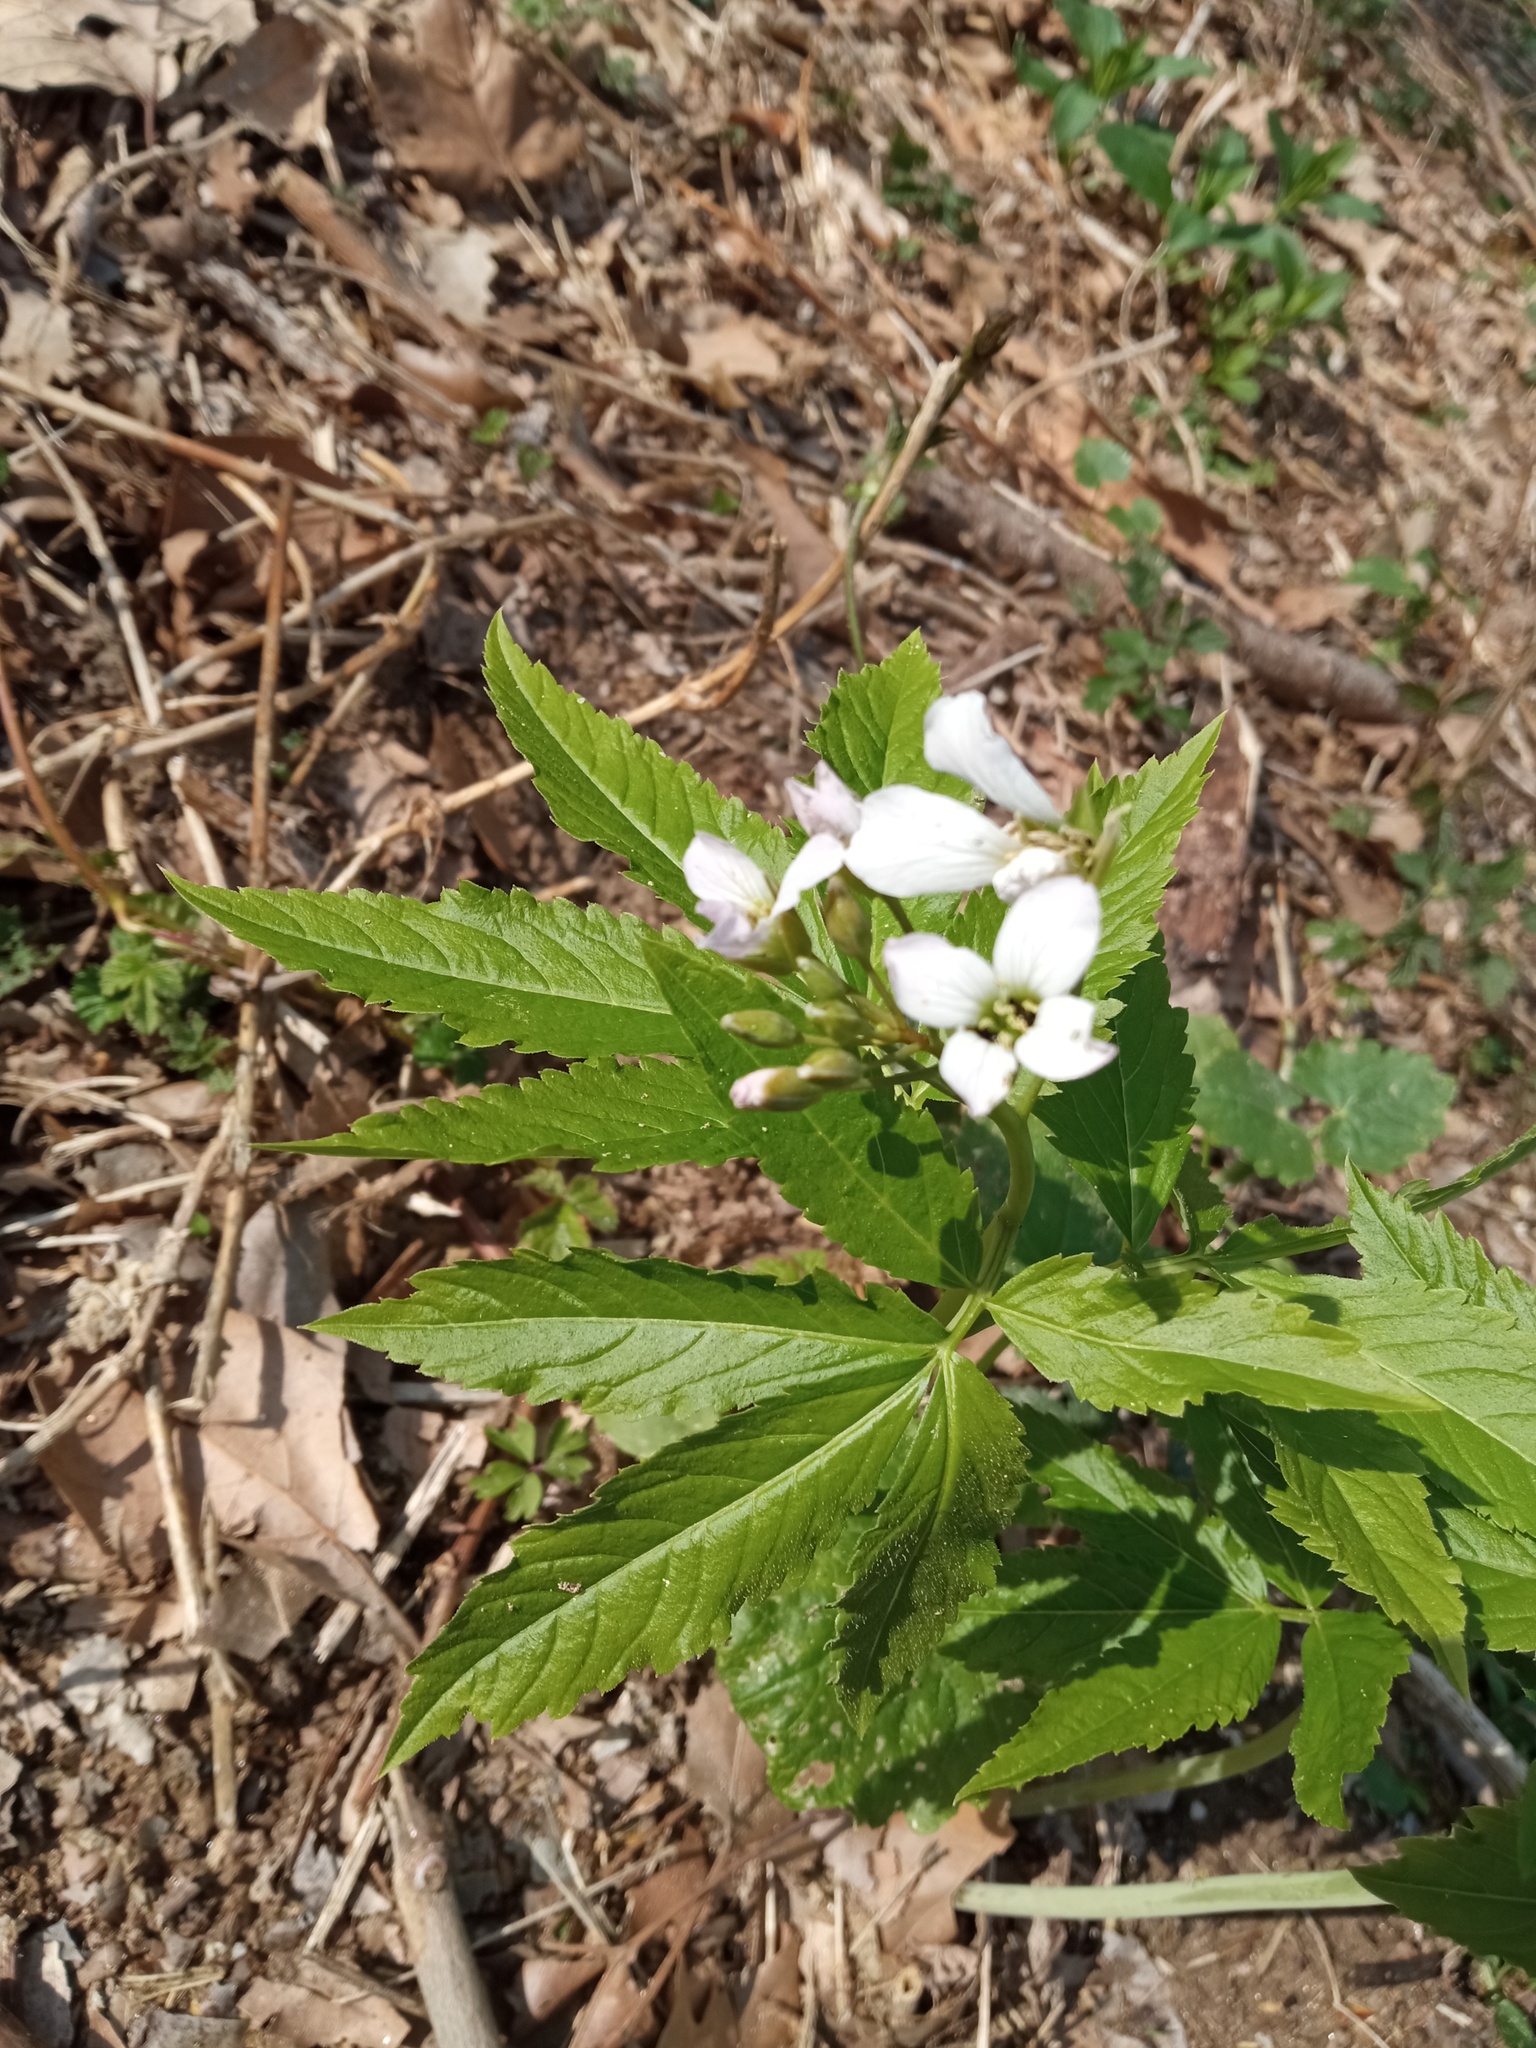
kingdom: Plantae
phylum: Tracheophyta
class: Magnoliopsida
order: Brassicales
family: Brassicaceae
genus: Cardamine
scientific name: Cardamine heptaphylla
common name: Pinnate coralroot
